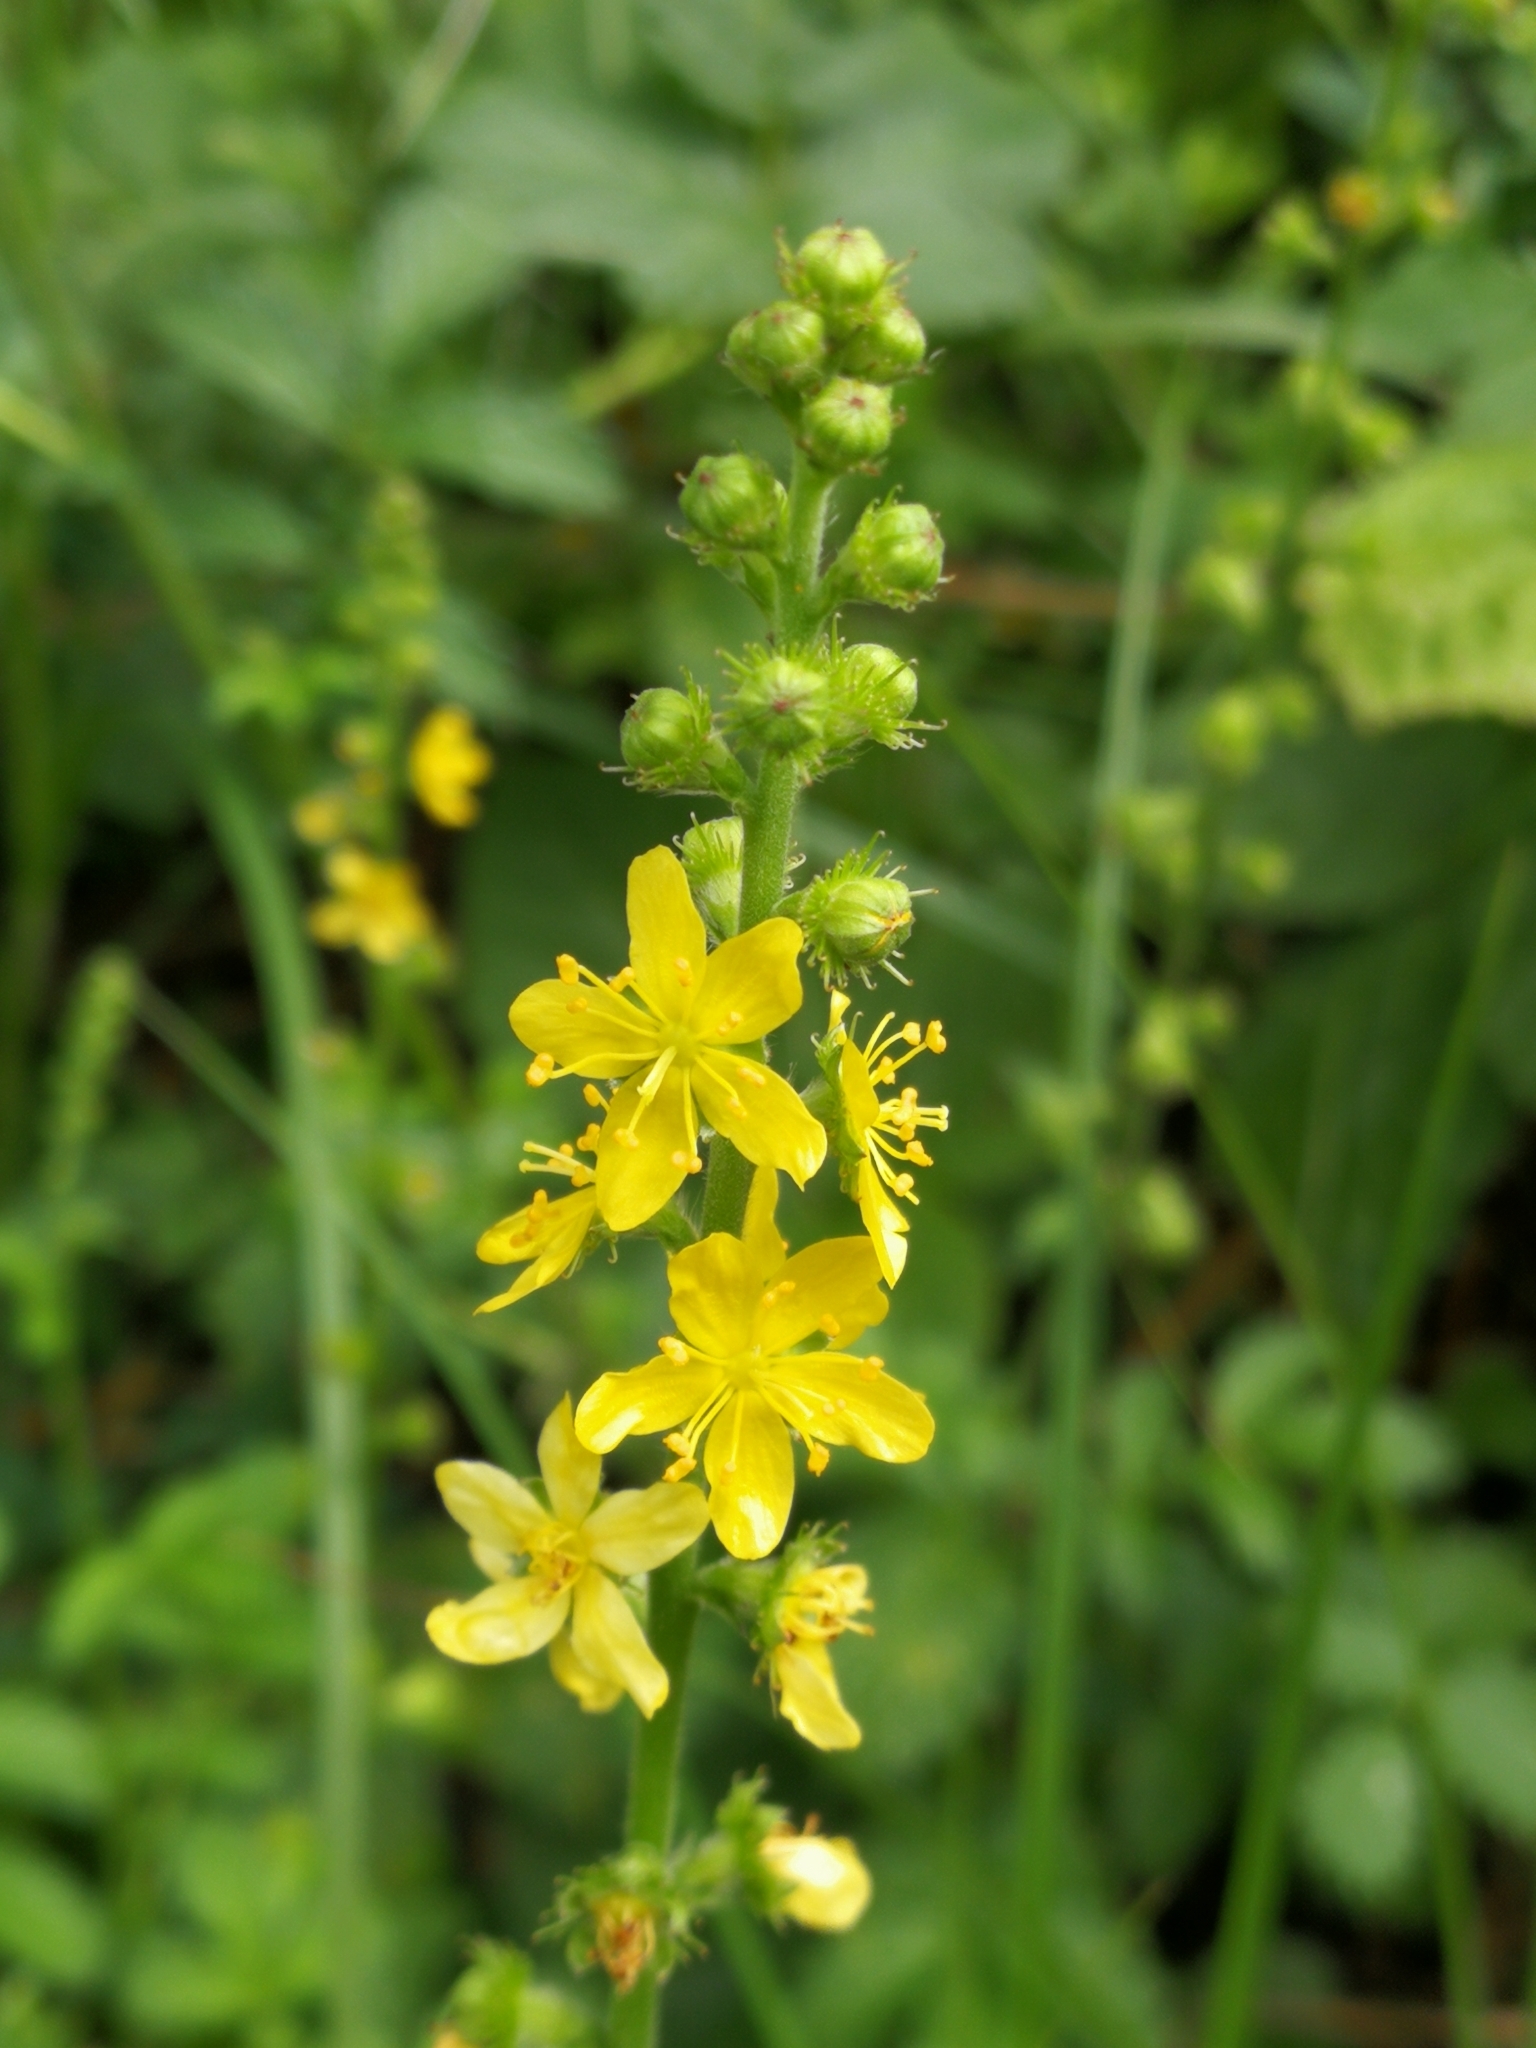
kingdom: Plantae
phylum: Tracheophyta
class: Magnoliopsida
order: Rosales
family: Rosaceae
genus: Agrimonia
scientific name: Agrimonia eupatoria
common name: Agrimony
